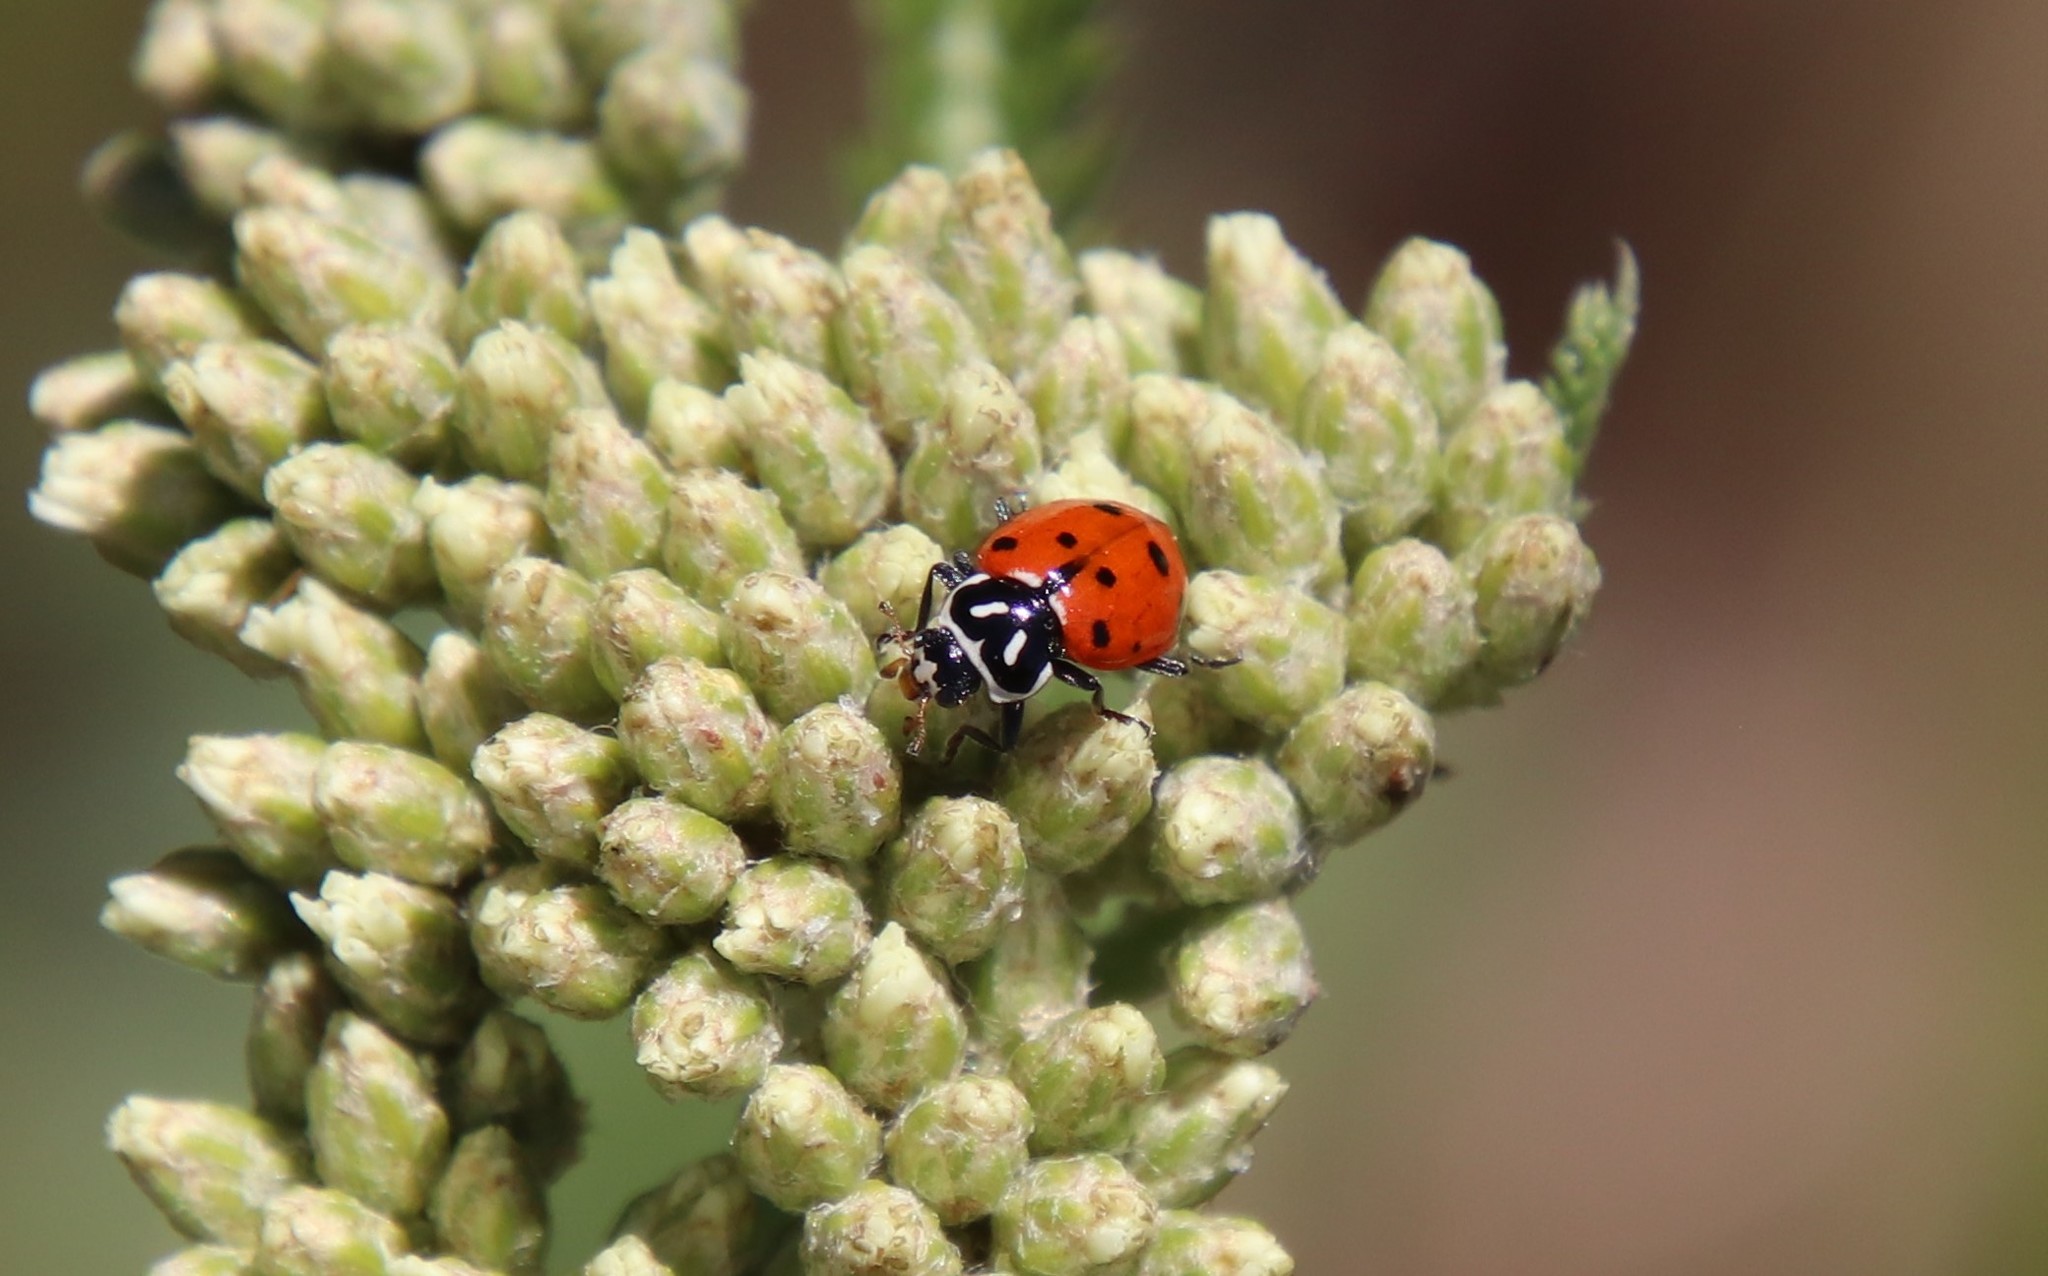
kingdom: Animalia
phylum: Arthropoda
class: Insecta
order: Coleoptera
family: Coccinellidae
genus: Hippodamia
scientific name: Hippodamia convergens
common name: Convergent lady beetle
